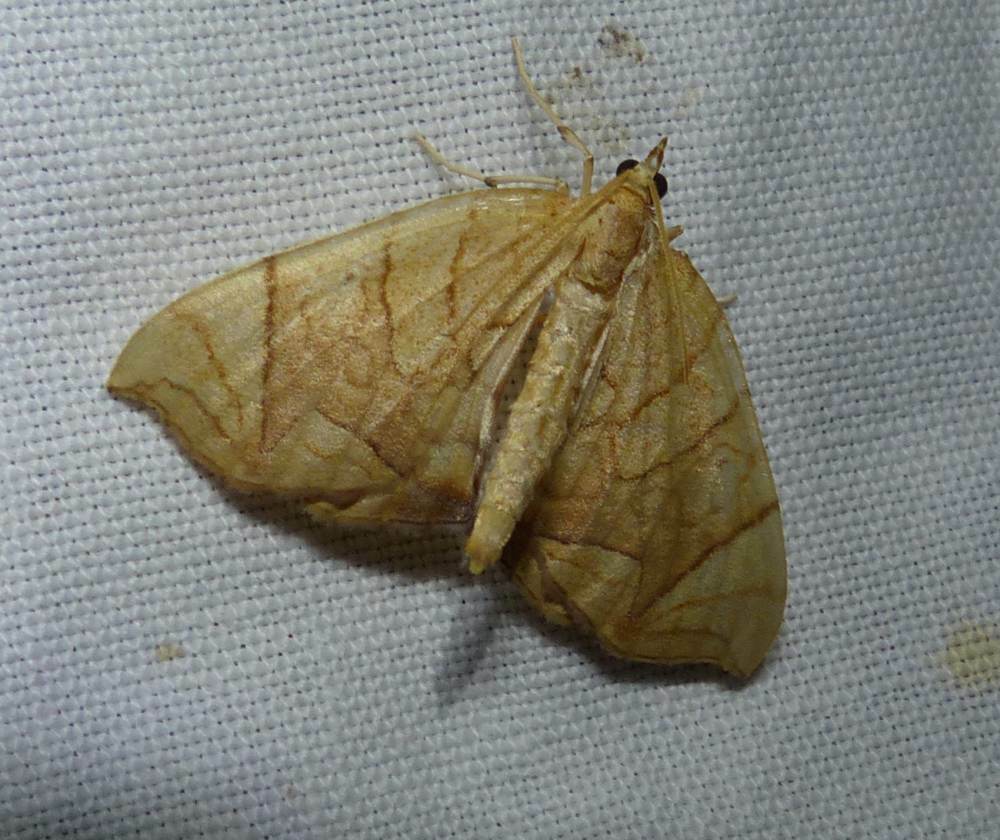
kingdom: Animalia
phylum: Arthropoda
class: Insecta
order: Lepidoptera
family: Geometridae
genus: Eulithis
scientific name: Eulithis
